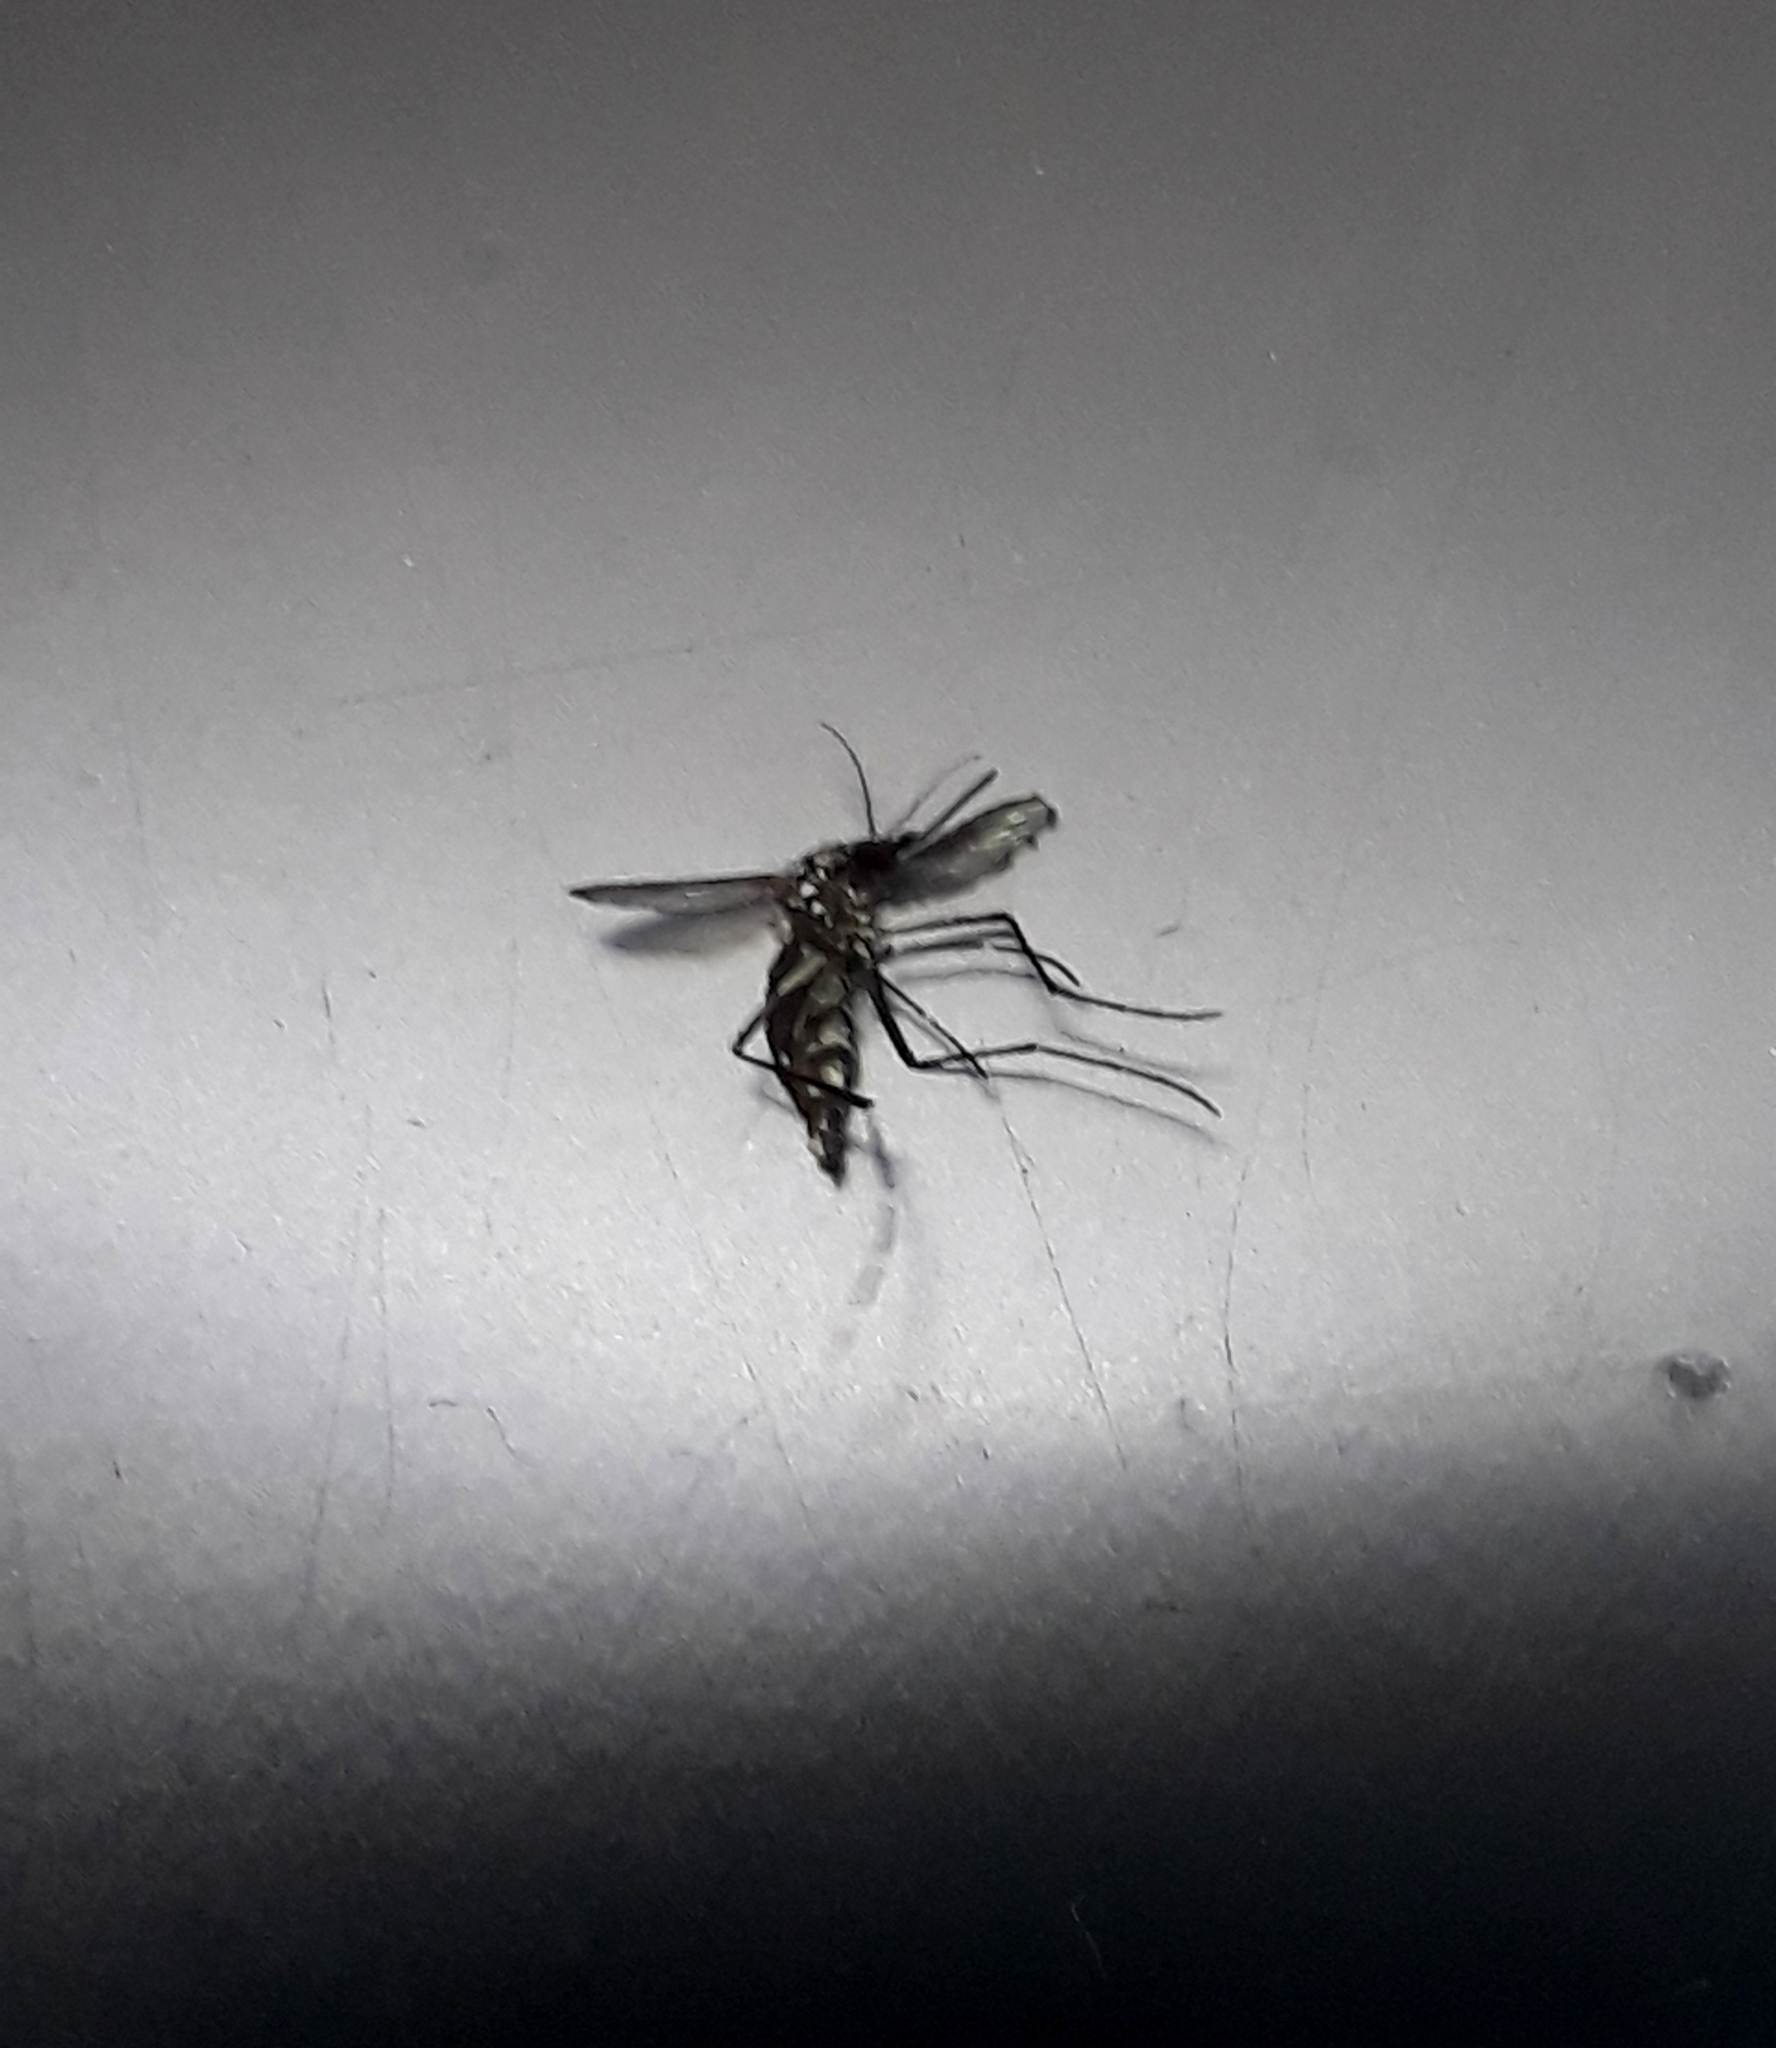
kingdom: Animalia
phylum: Arthropoda
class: Insecta
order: Diptera
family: Culicidae
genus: Aedes
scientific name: Aedes aegypti
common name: Yellow fever mosquito
